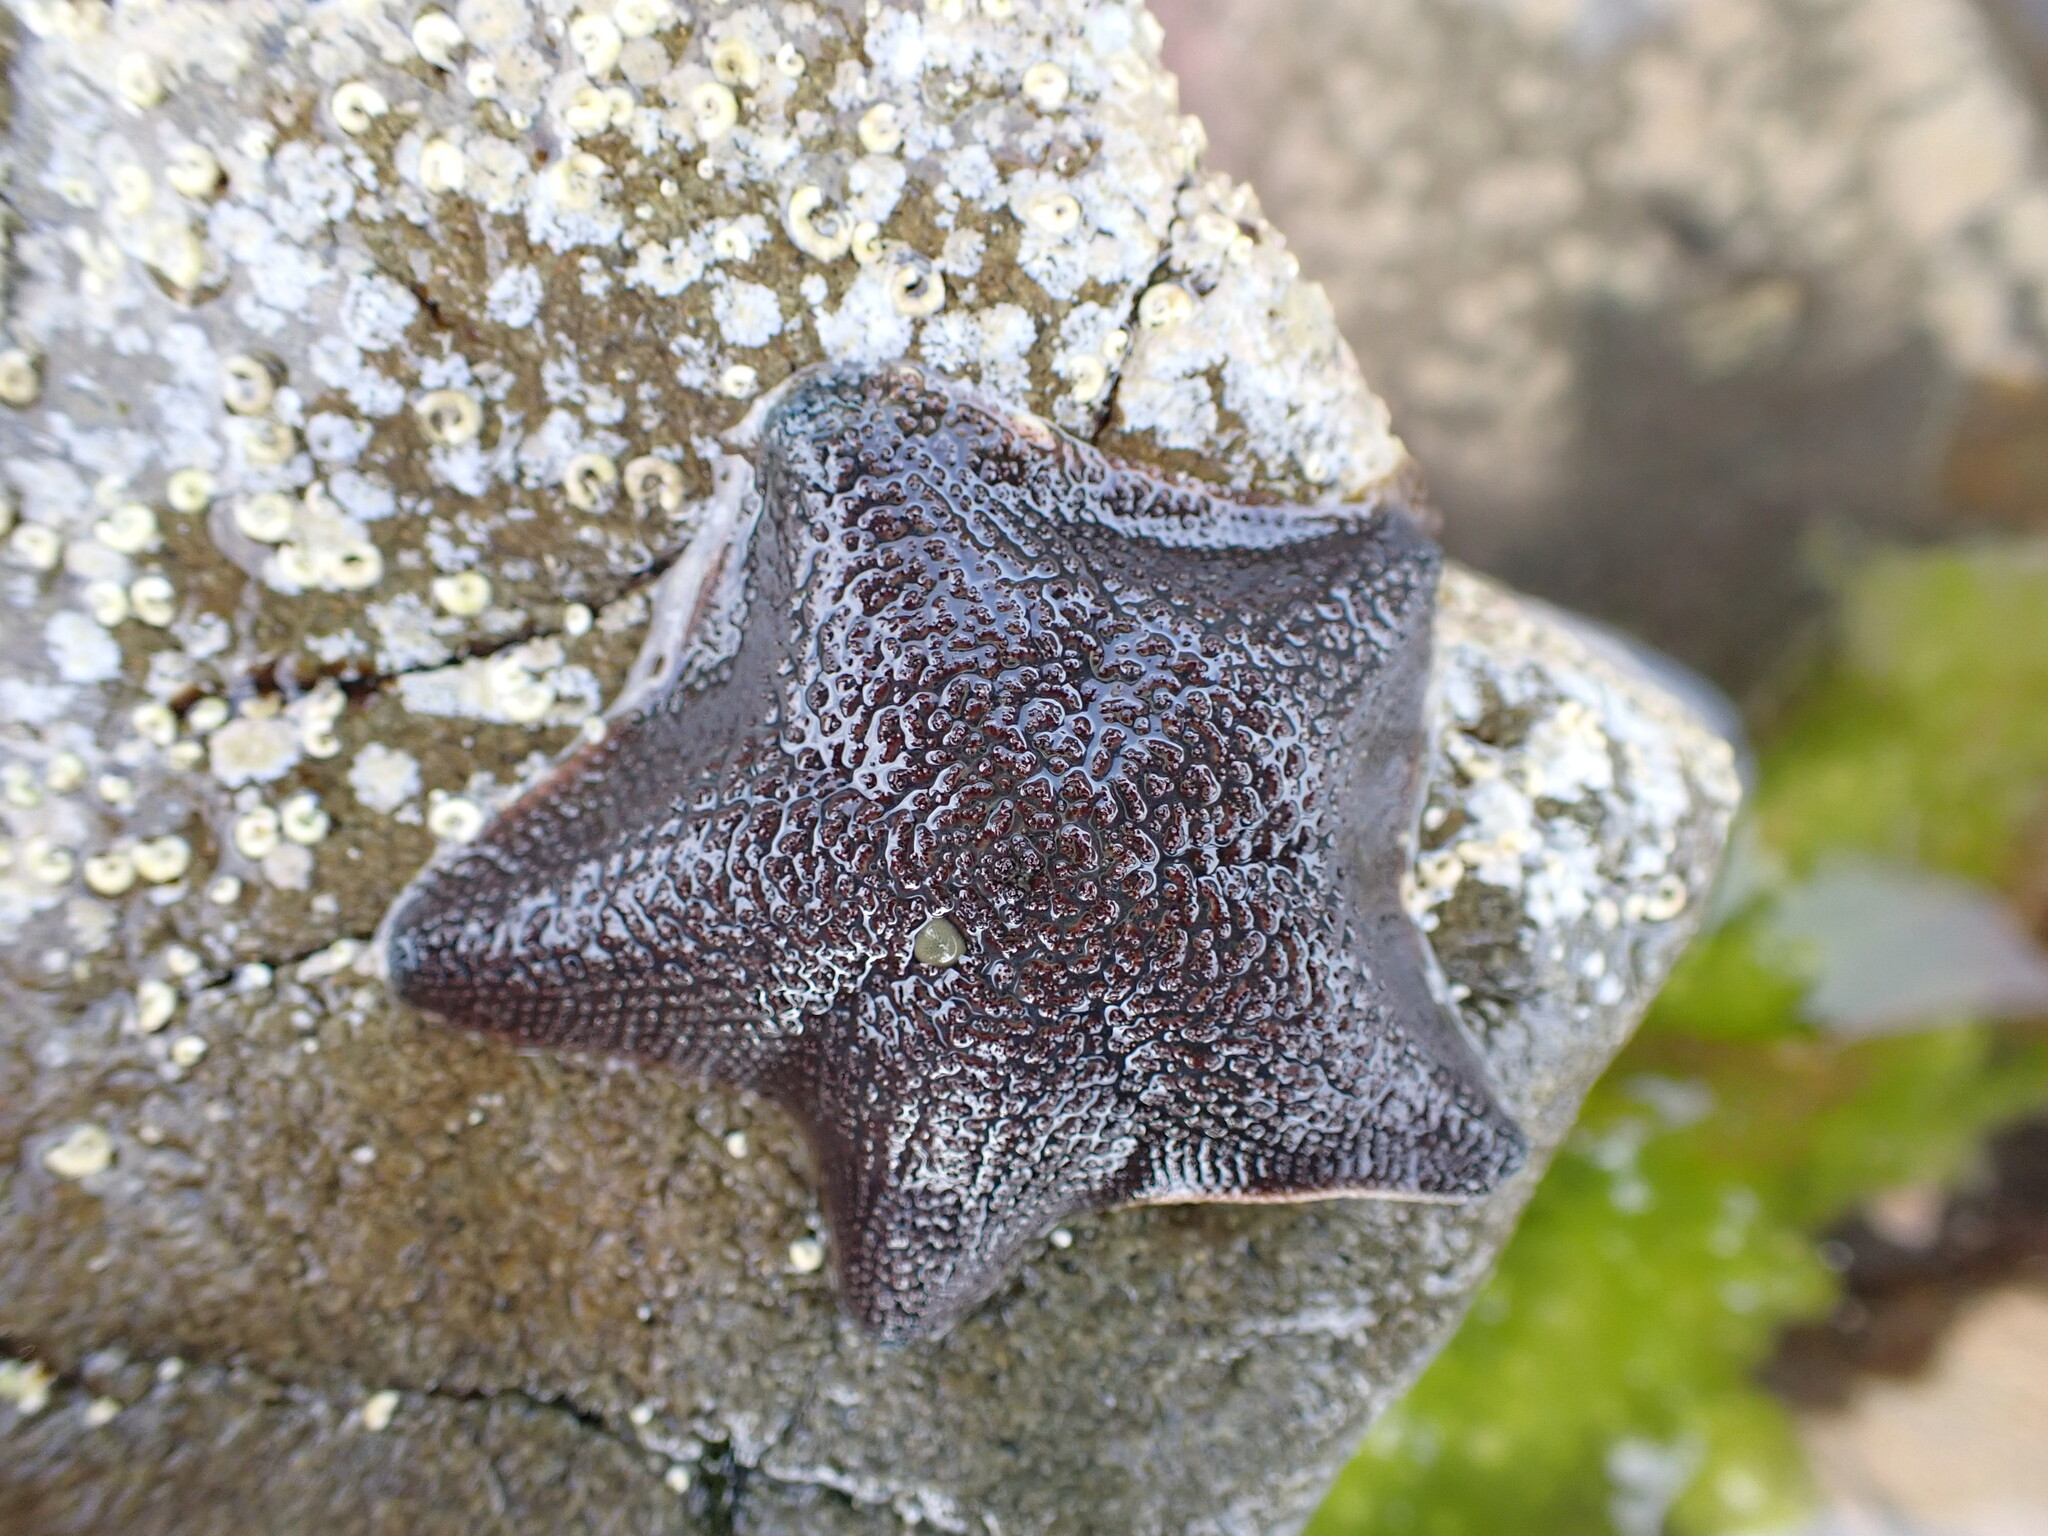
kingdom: Animalia
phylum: Echinodermata
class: Asteroidea
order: Valvatida
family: Asterinidae
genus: Patiriella
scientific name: Patiriella regularis
